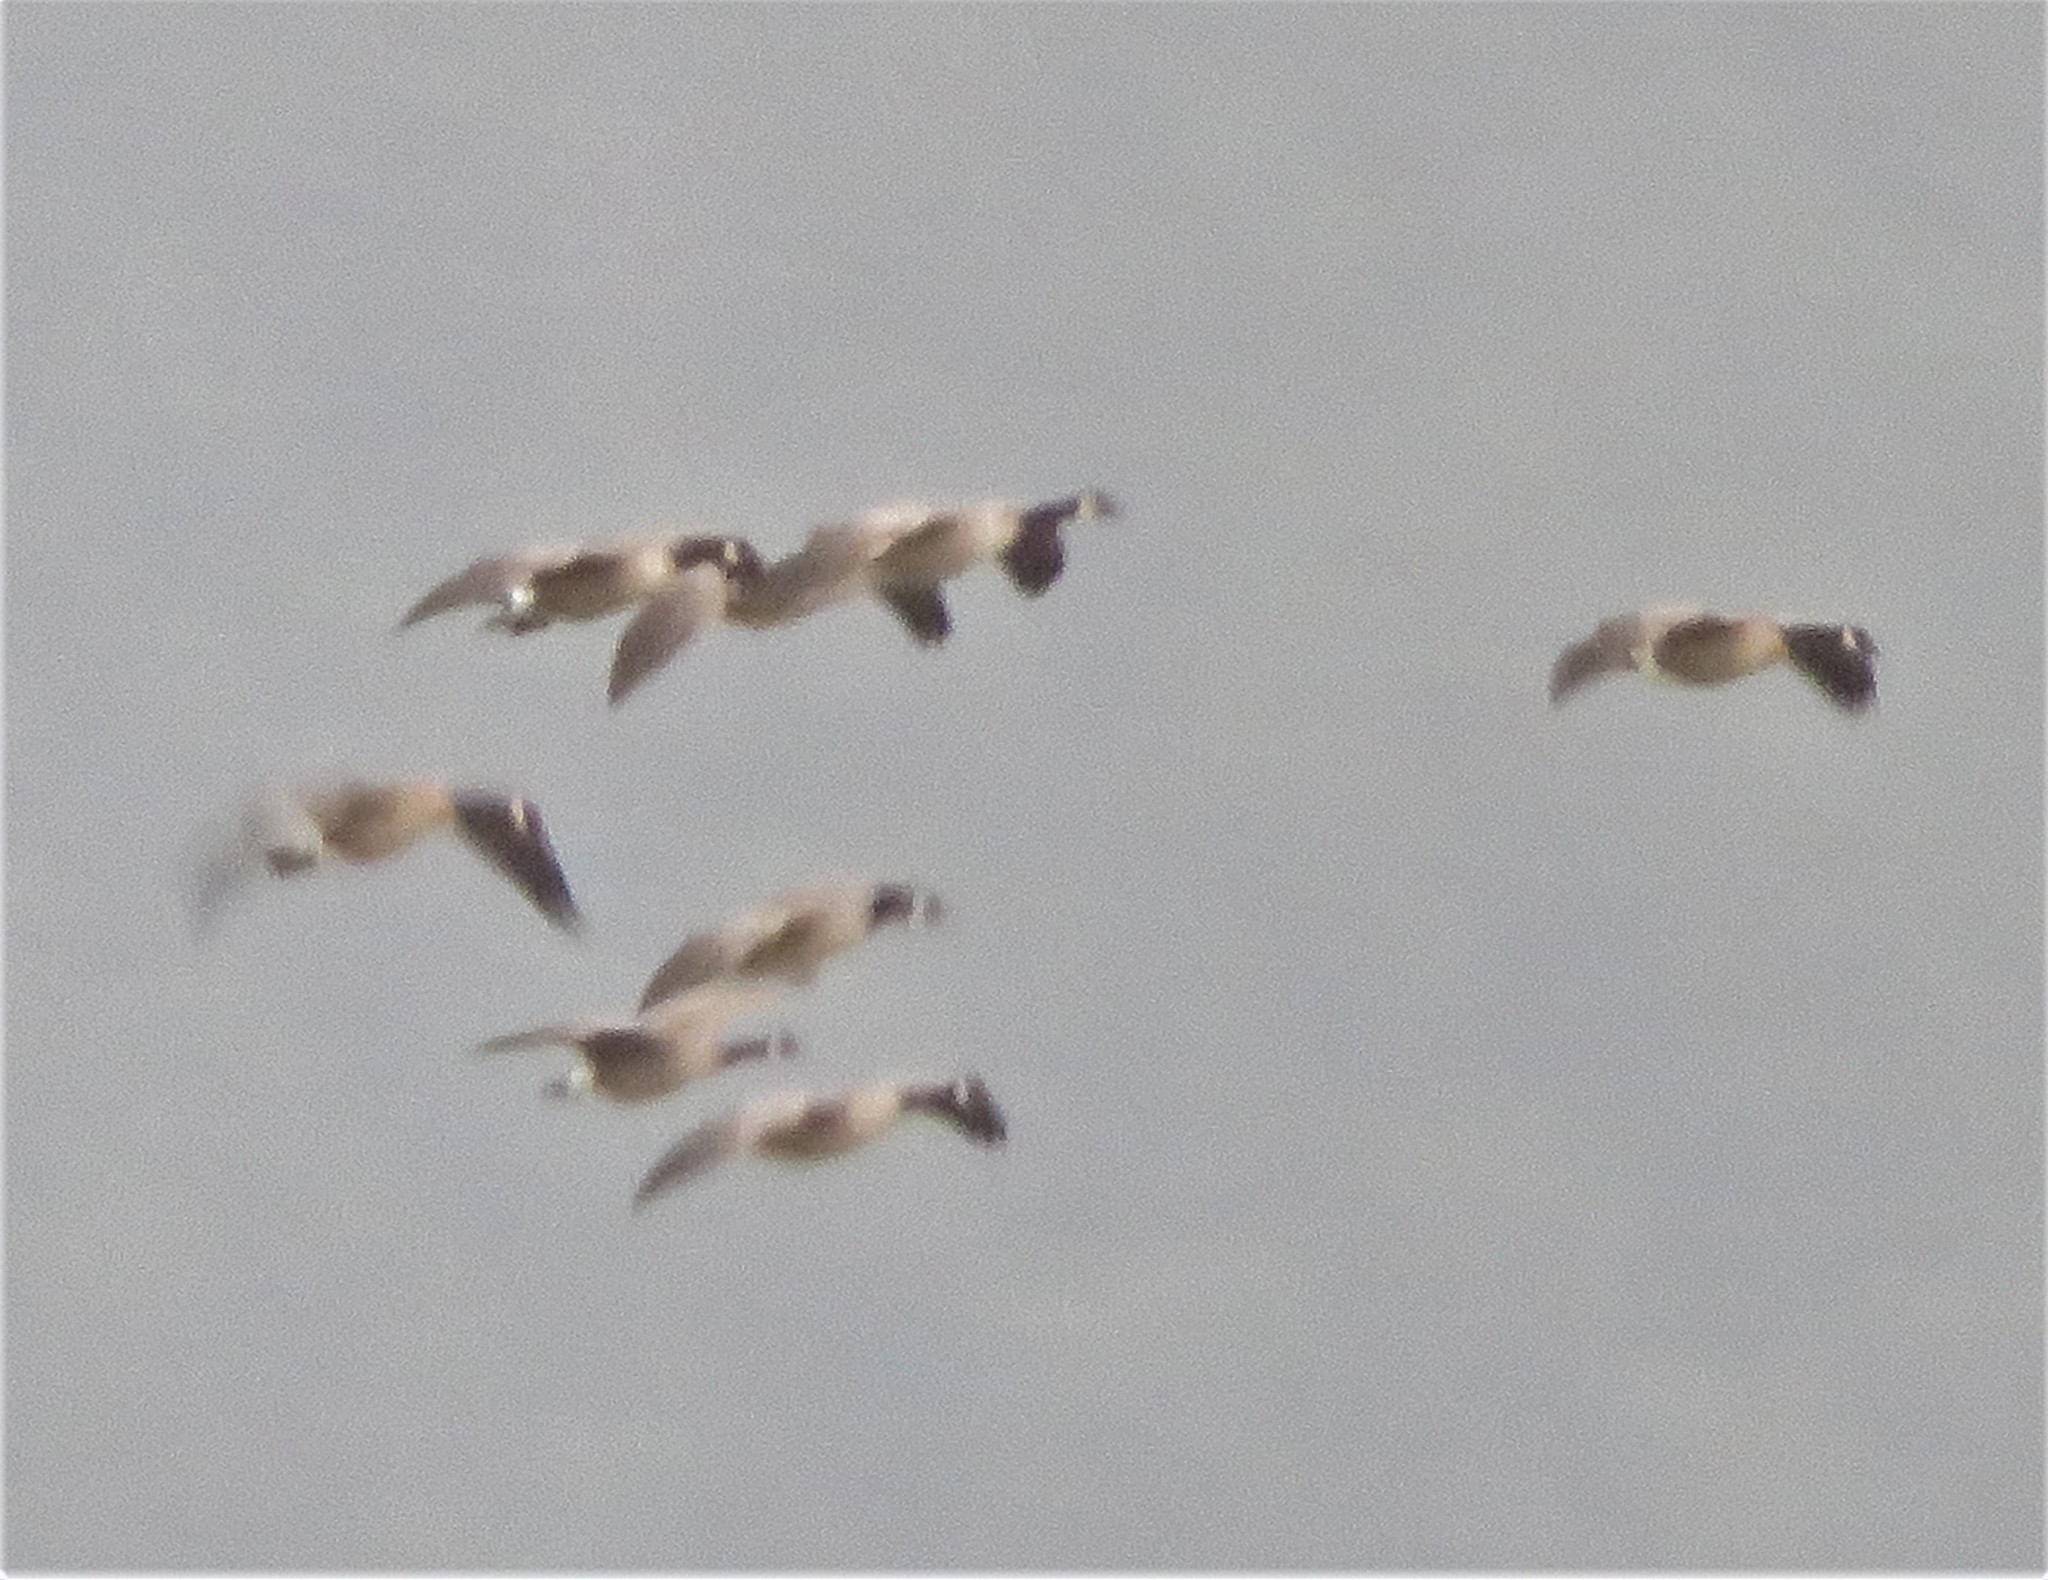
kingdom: Animalia
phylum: Chordata
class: Aves
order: Anseriformes
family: Anatidae
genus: Branta
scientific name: Branta canadensis
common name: Canada goose
